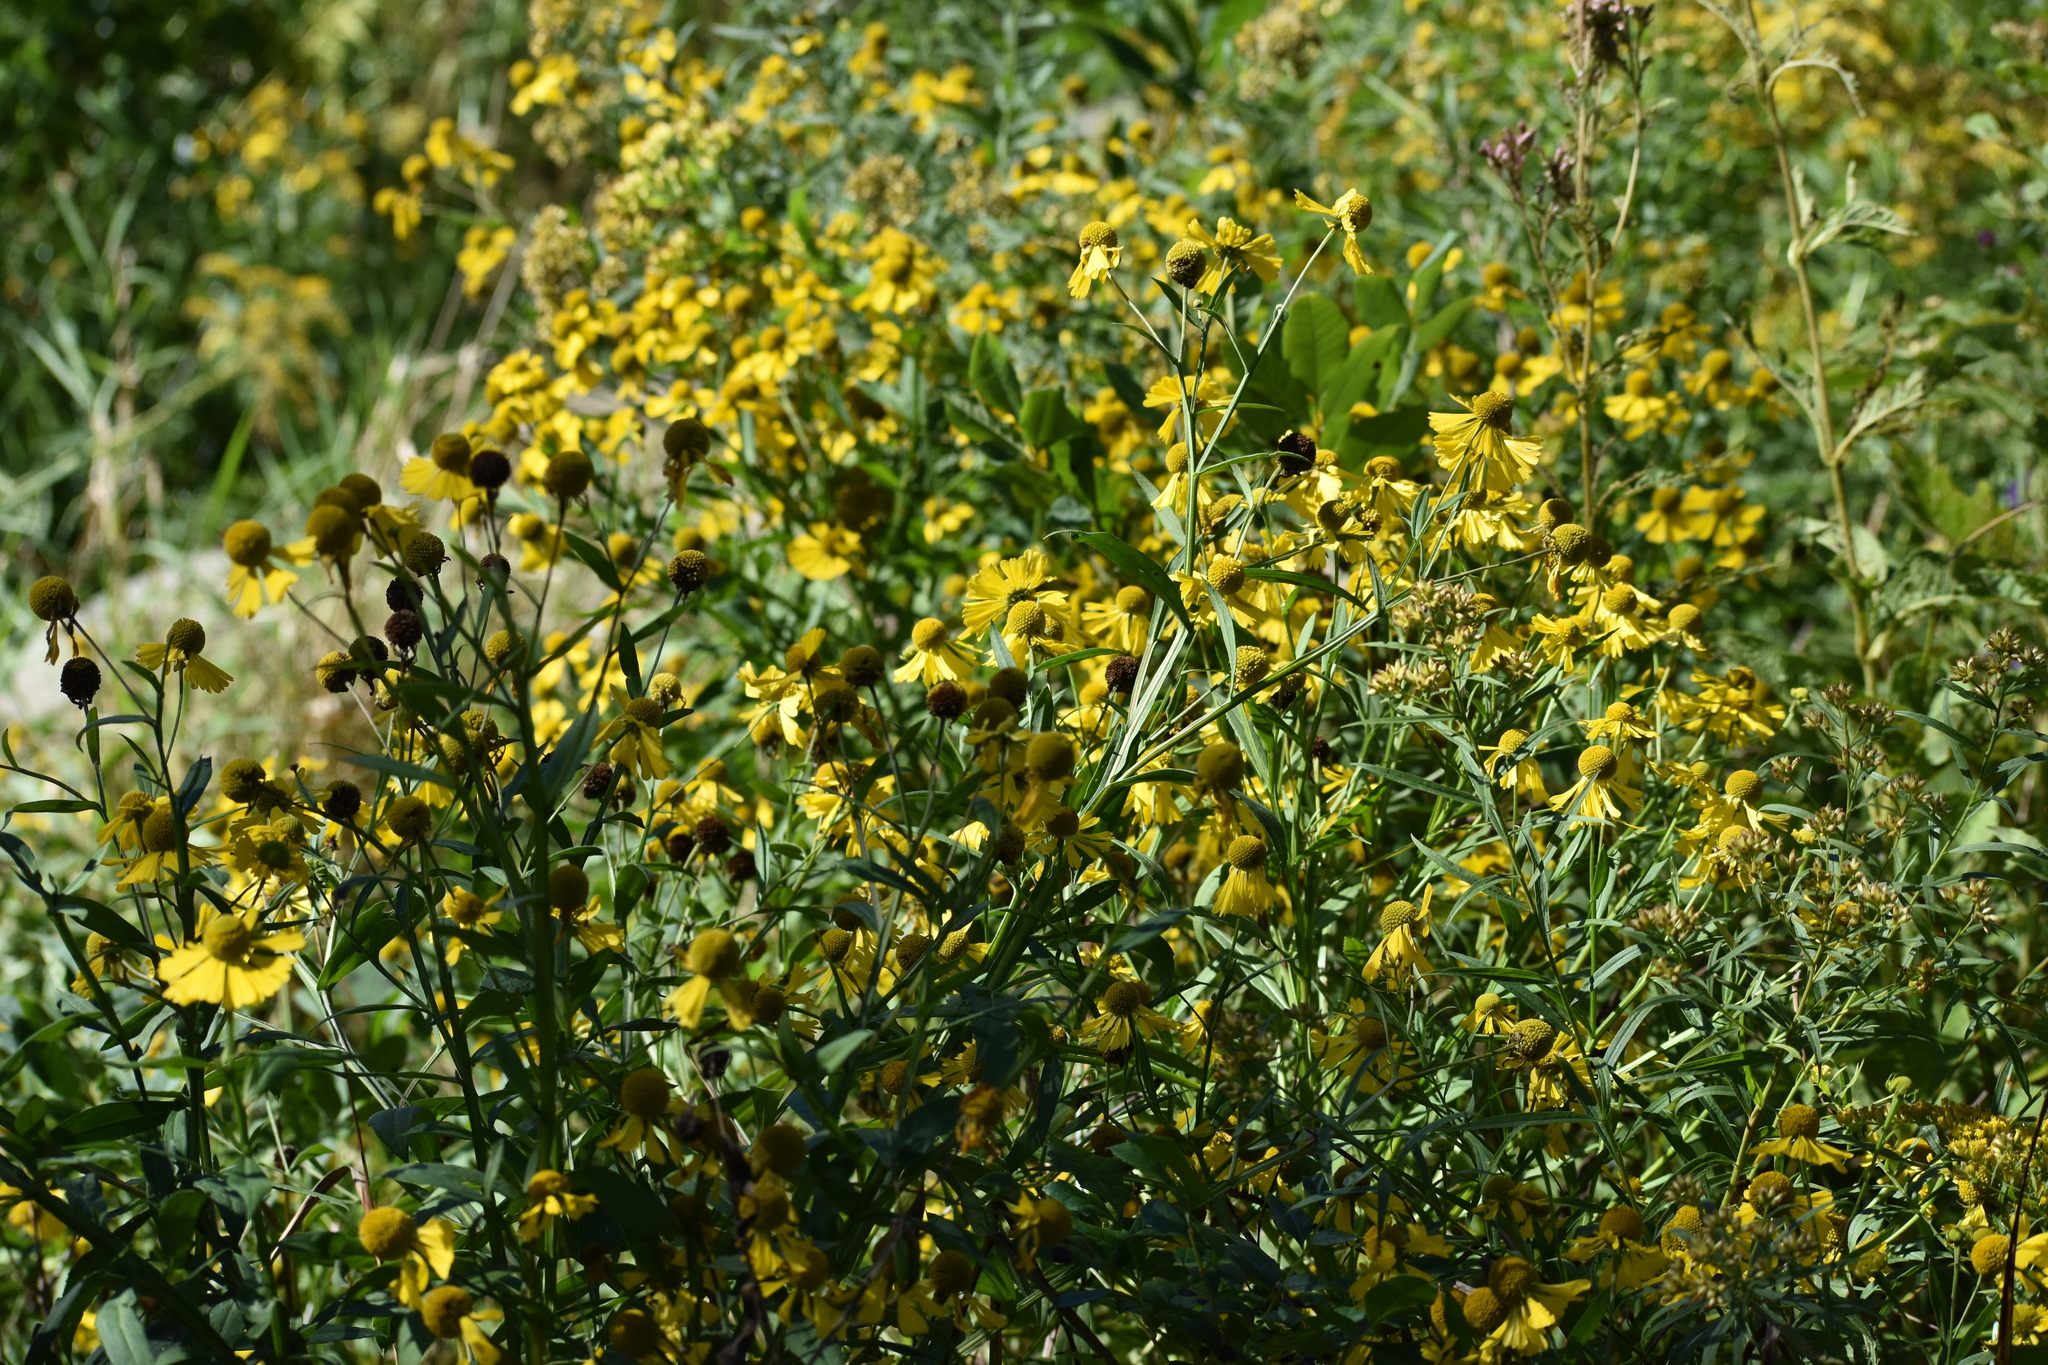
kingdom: Plantae
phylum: Tracheophyta
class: Magnoliopsida
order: Asterales
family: Asteraceae
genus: Helenium
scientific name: Helenium autumnale
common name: Sneezeweed
